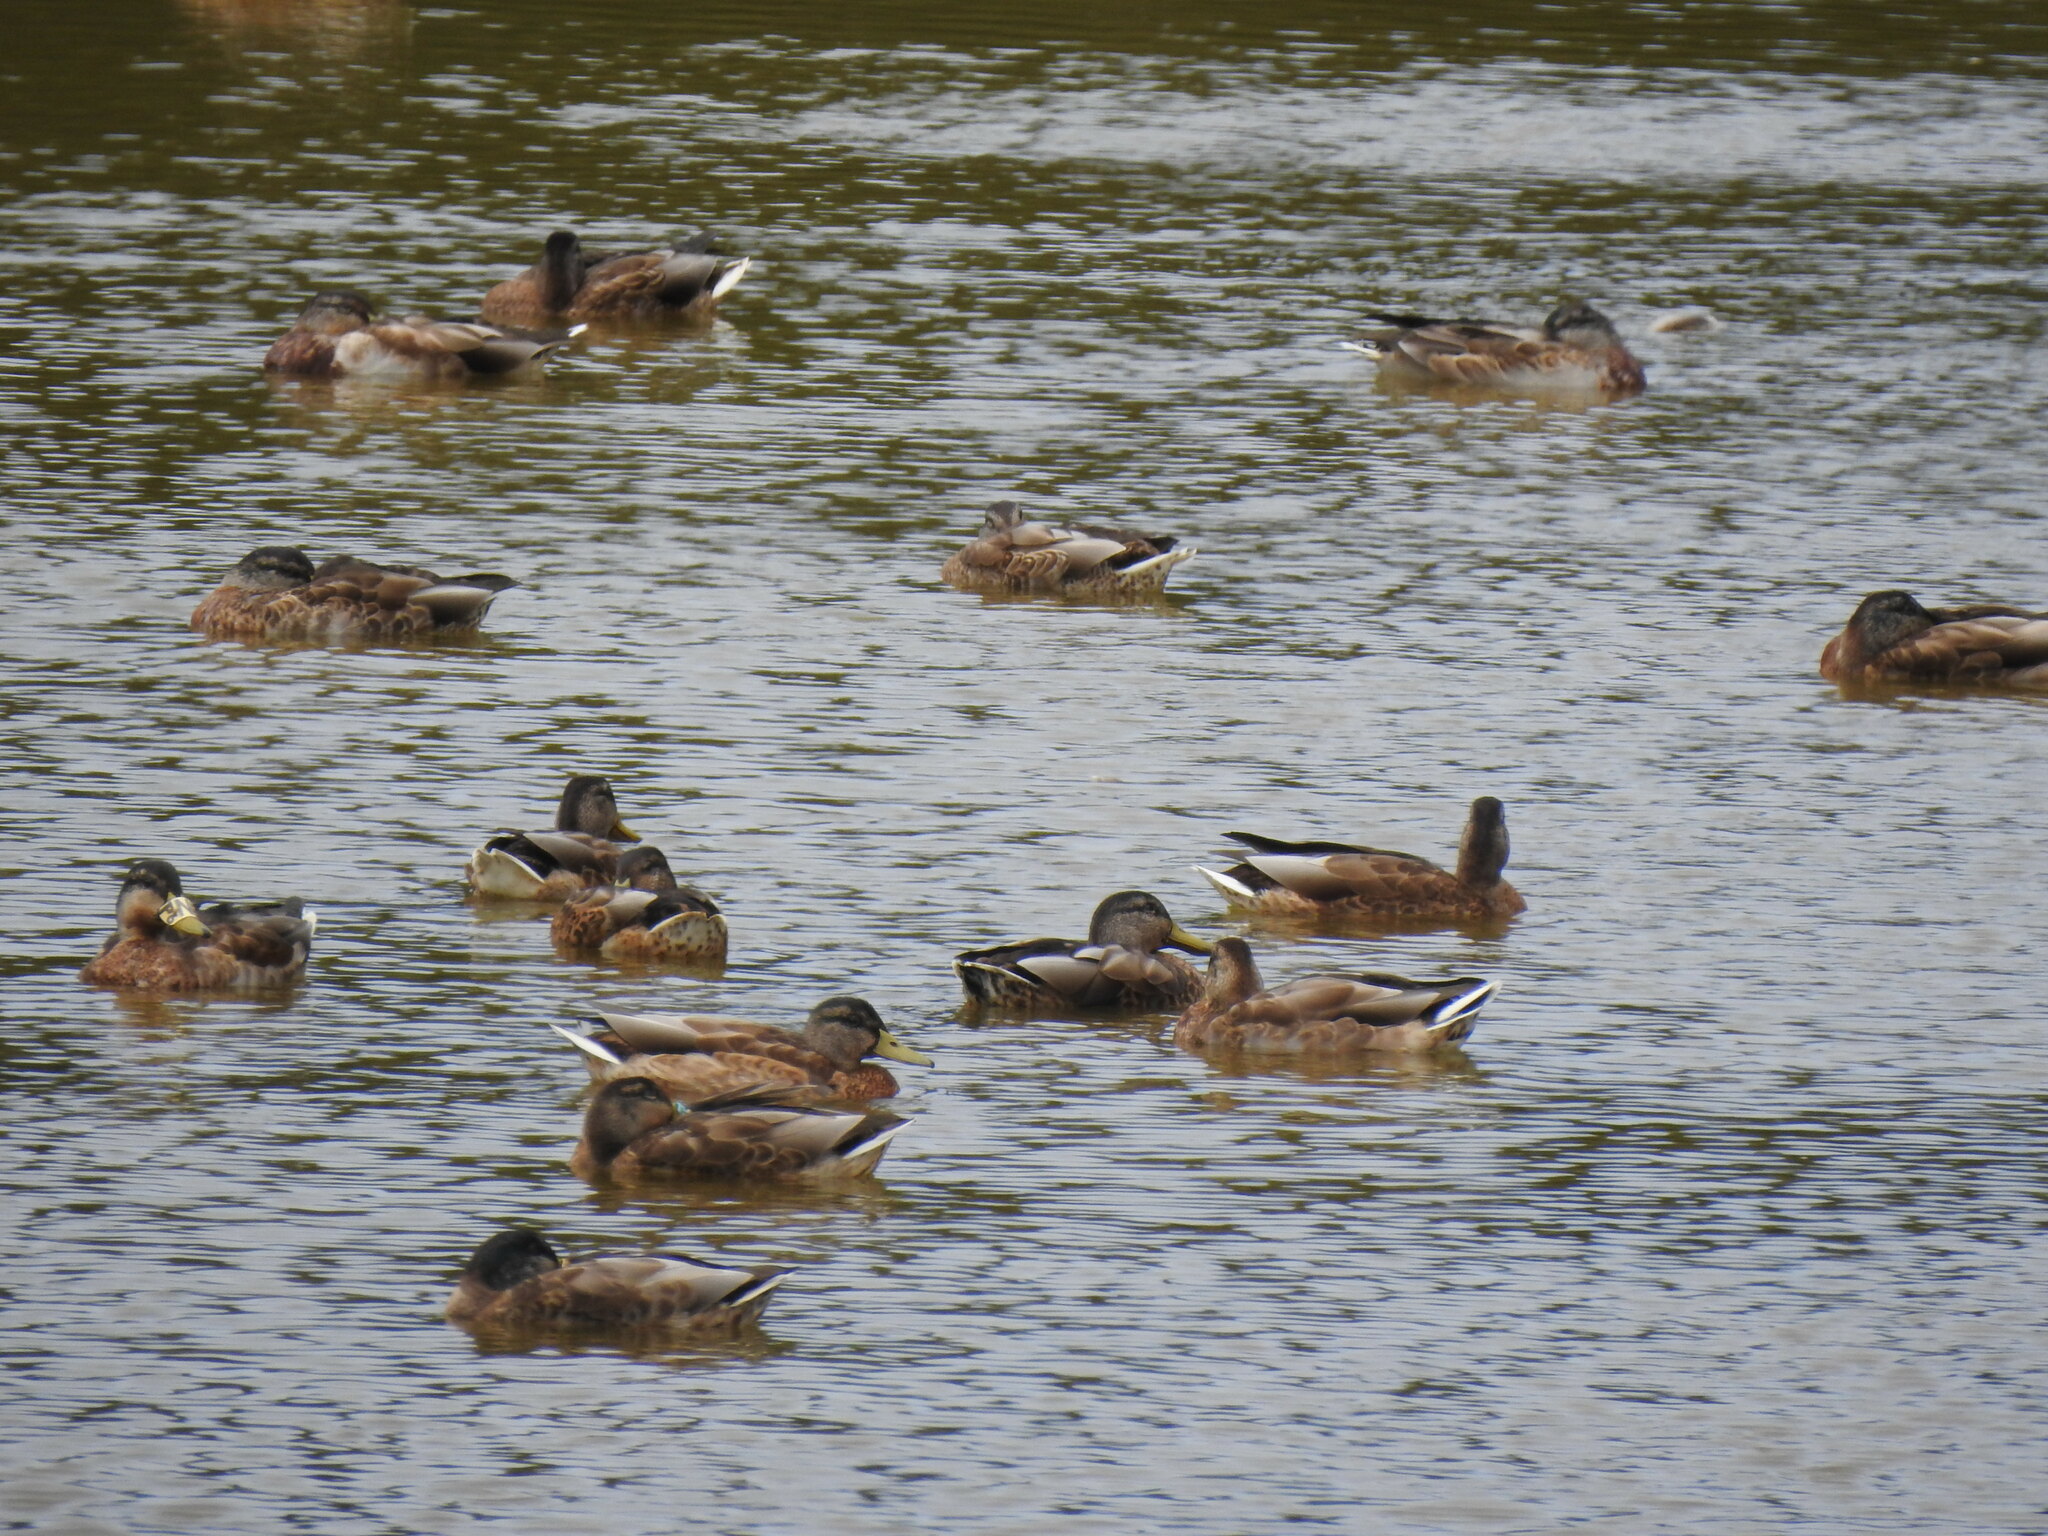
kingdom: Animalia
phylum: Chordata
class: Aves
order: Anseriformes
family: Anatidae
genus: Anas
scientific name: Anas platyrhynchos
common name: Mallard
